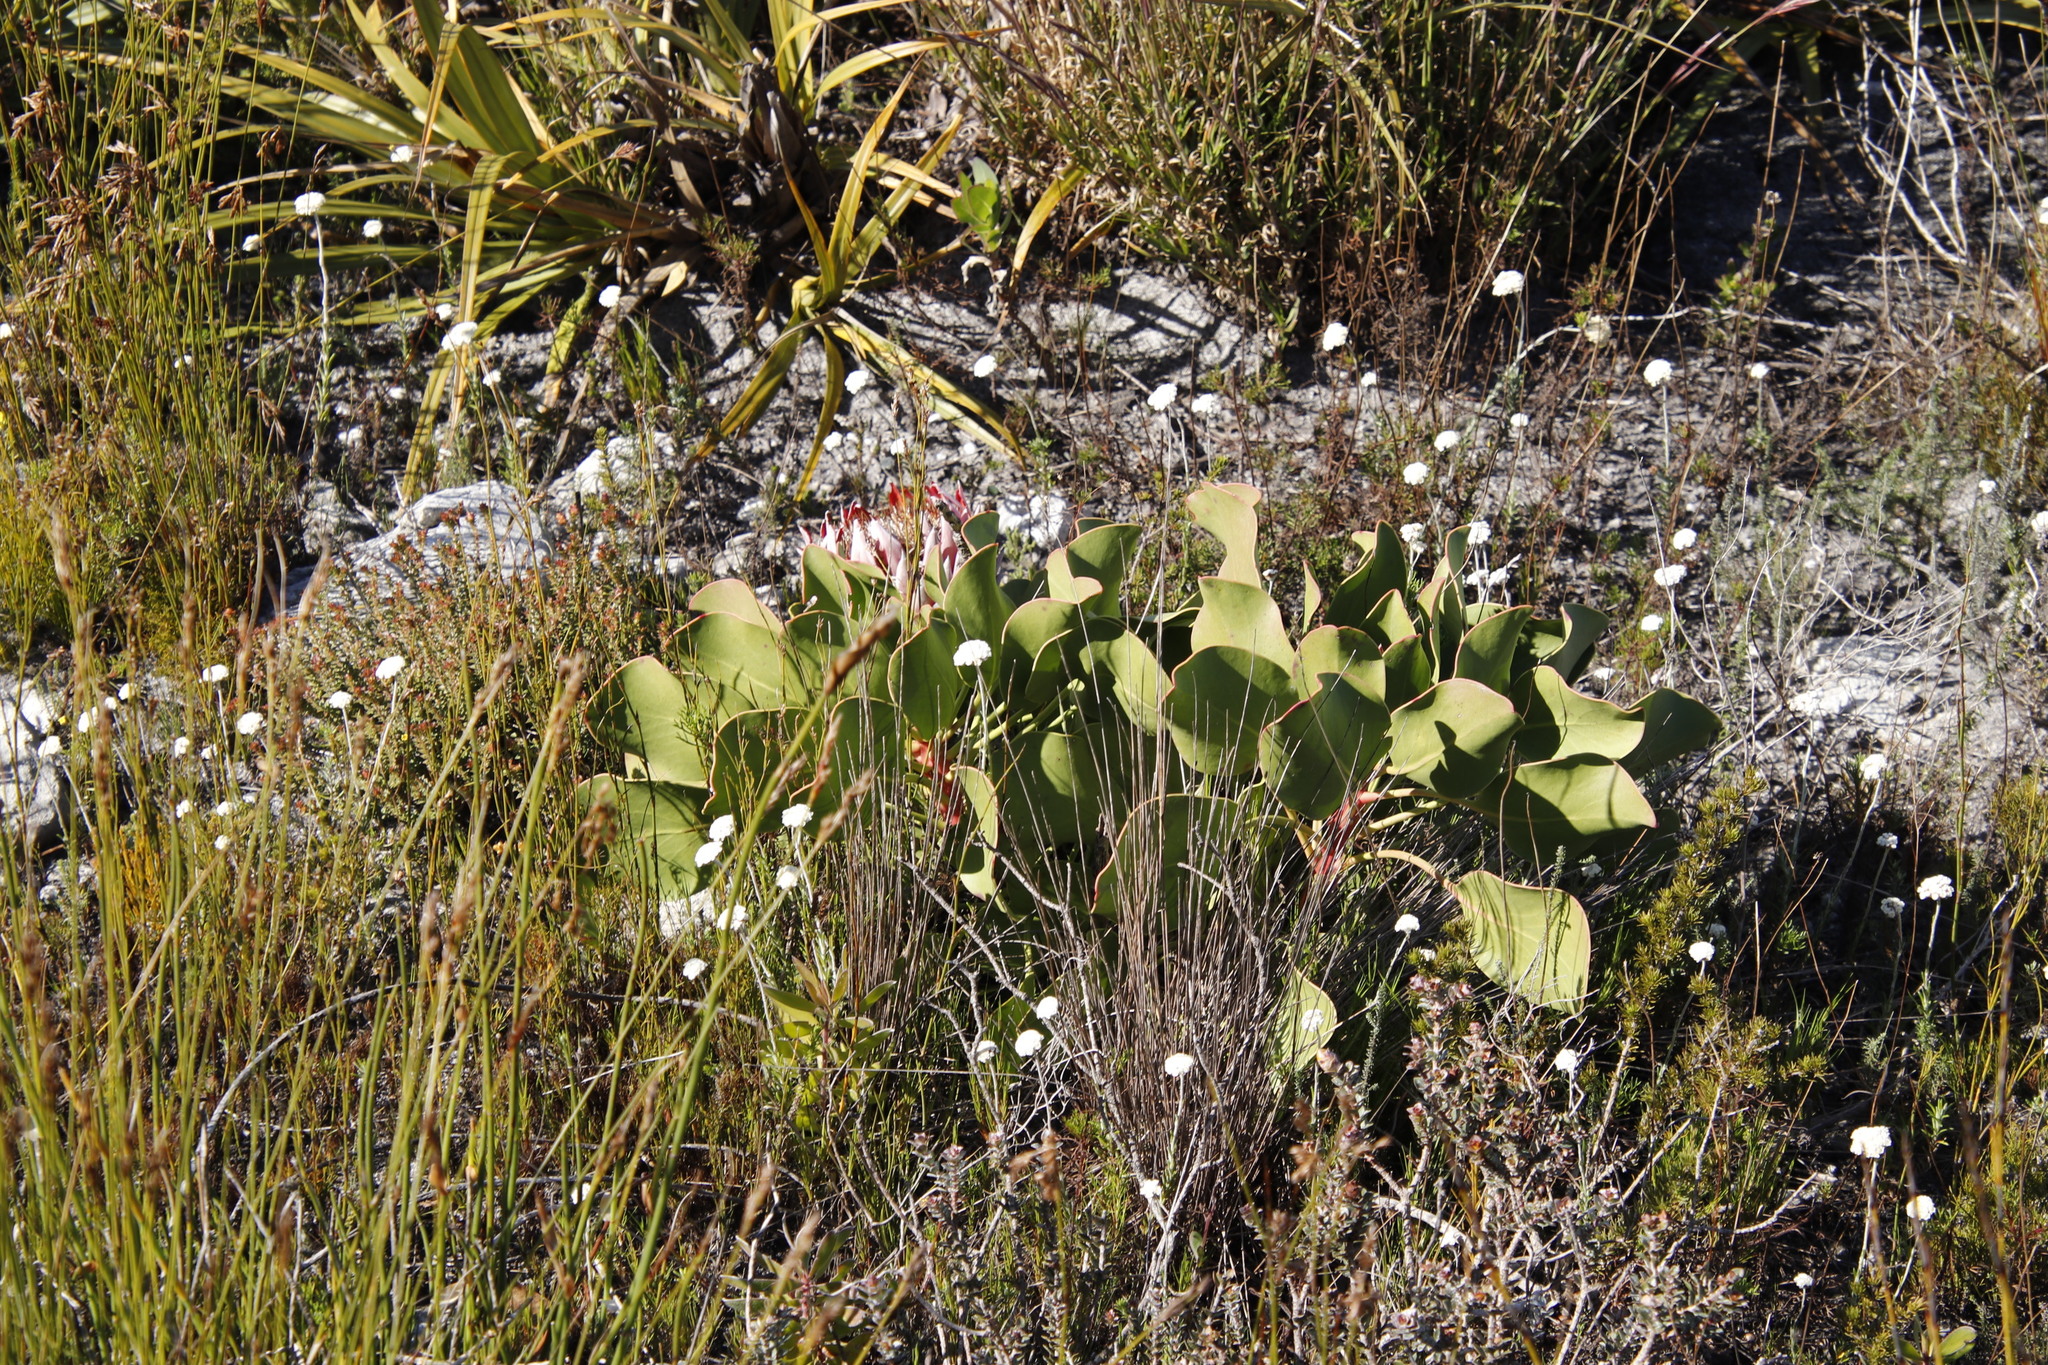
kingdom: Plantae
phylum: Tracheophyta
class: Magnoliopsida
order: Proteales
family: Proteaceae
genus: Protea
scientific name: Protea cynaroides
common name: King protea
